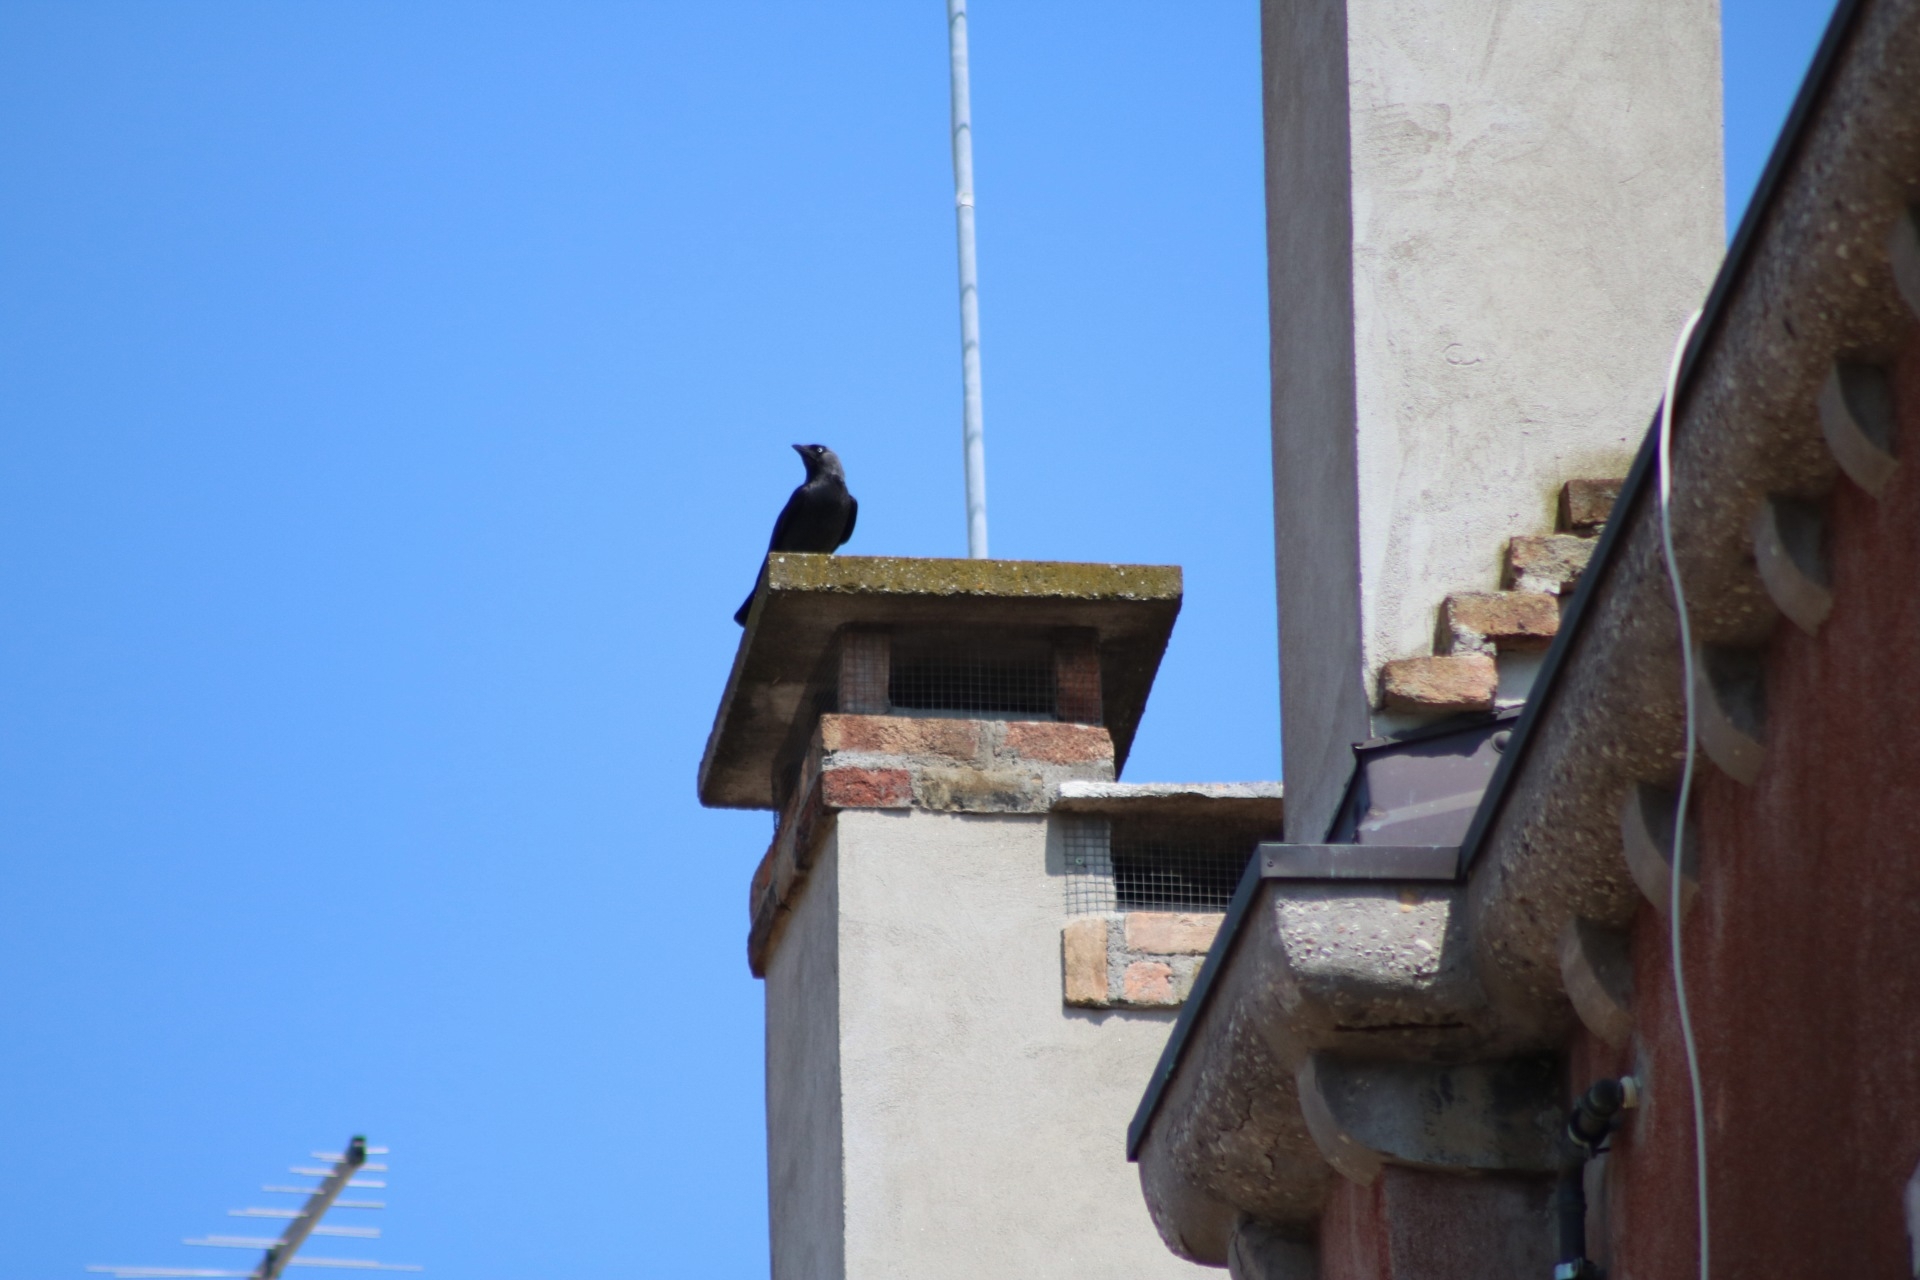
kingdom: Animalia
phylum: Chordata
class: Aves
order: Passeriformes
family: Corvidae
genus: Coloeus
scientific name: Coloeus monedula
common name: Western jackdaw
